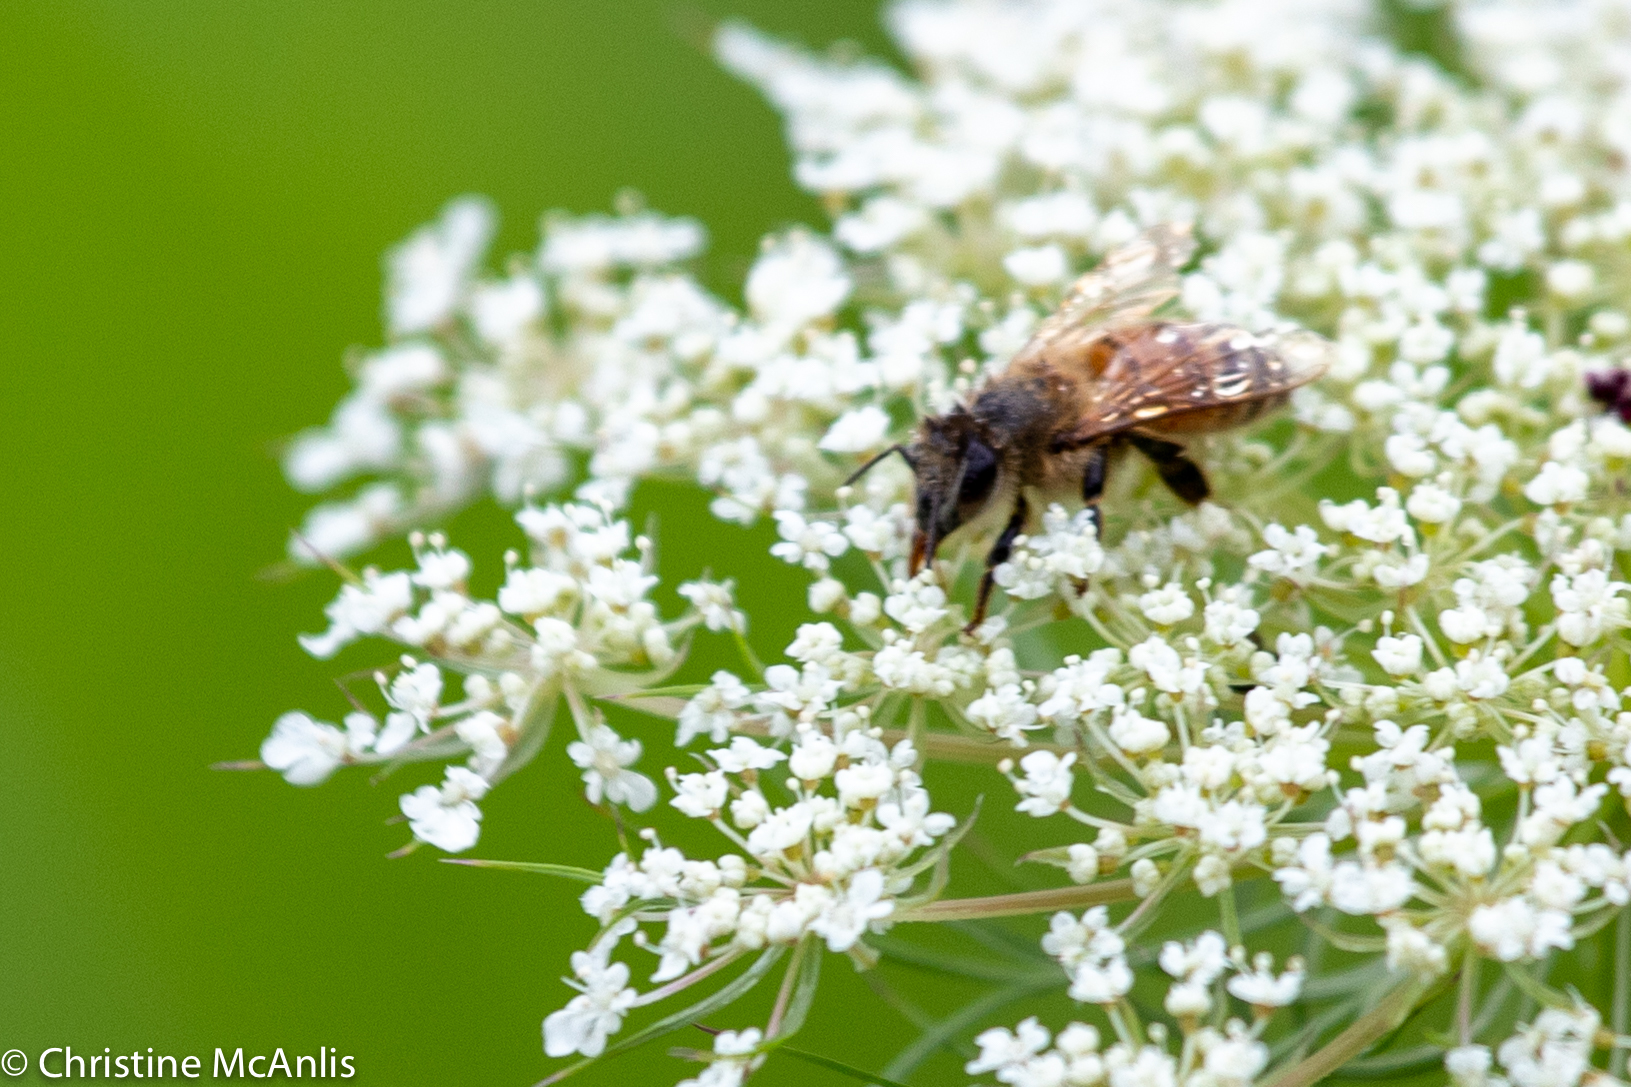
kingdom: Animalia
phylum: Arthropoda
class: Insecta
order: Hymenoptera
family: Apidae
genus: Apis
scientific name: Apis mellifera
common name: Honey bee
